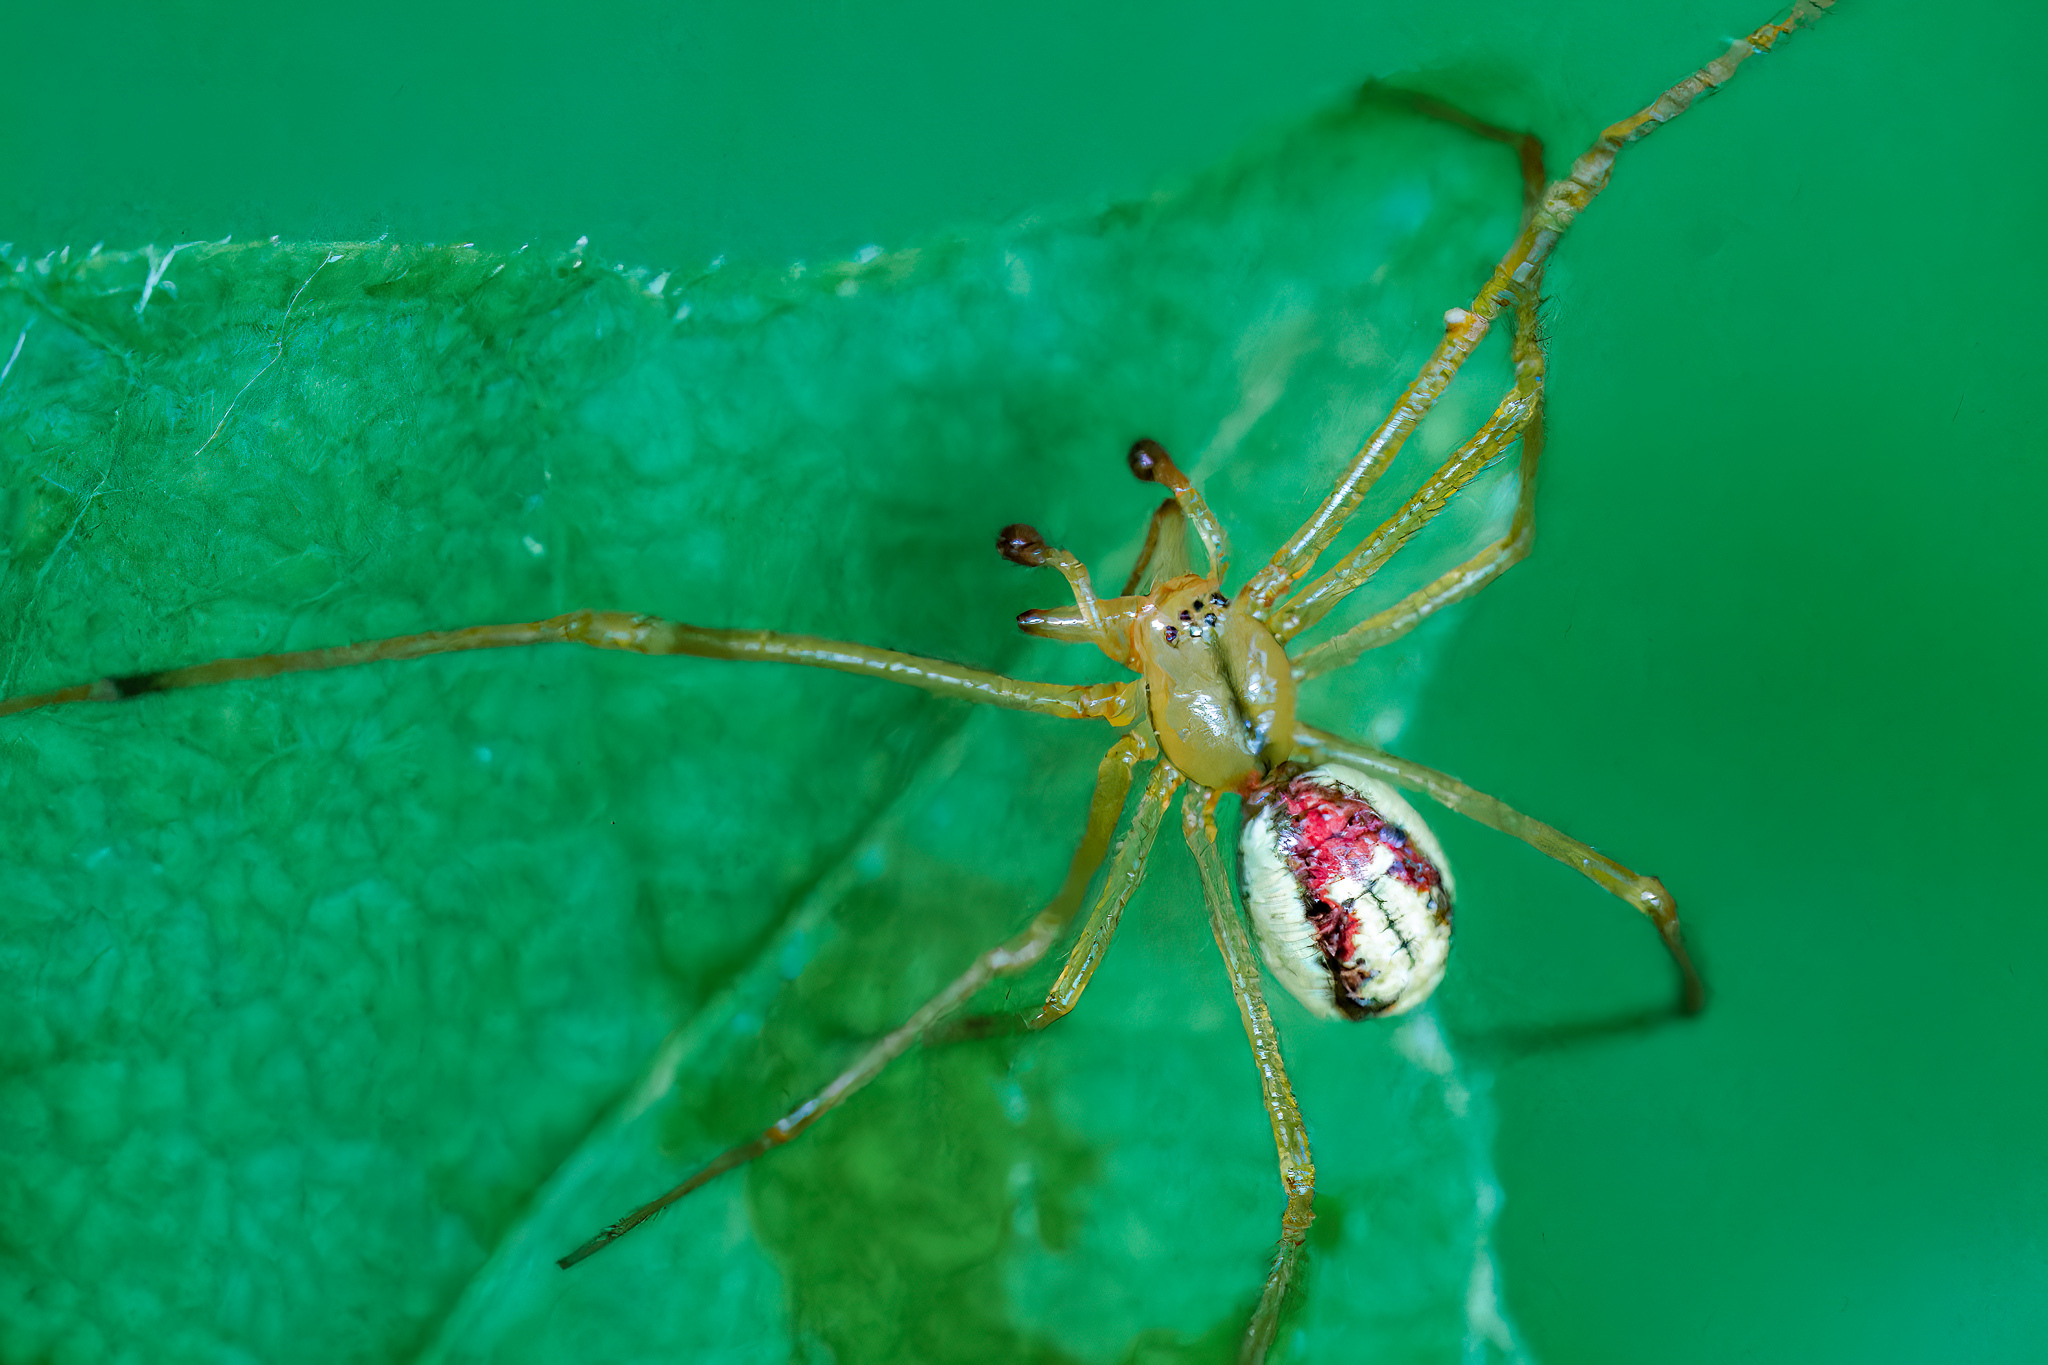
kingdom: Animalia
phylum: Arthropoda
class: Arachnida
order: Araneae
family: Theridiidae
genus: Enoplognatha
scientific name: Enoplognatha ovata
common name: Common candy-striped spider
